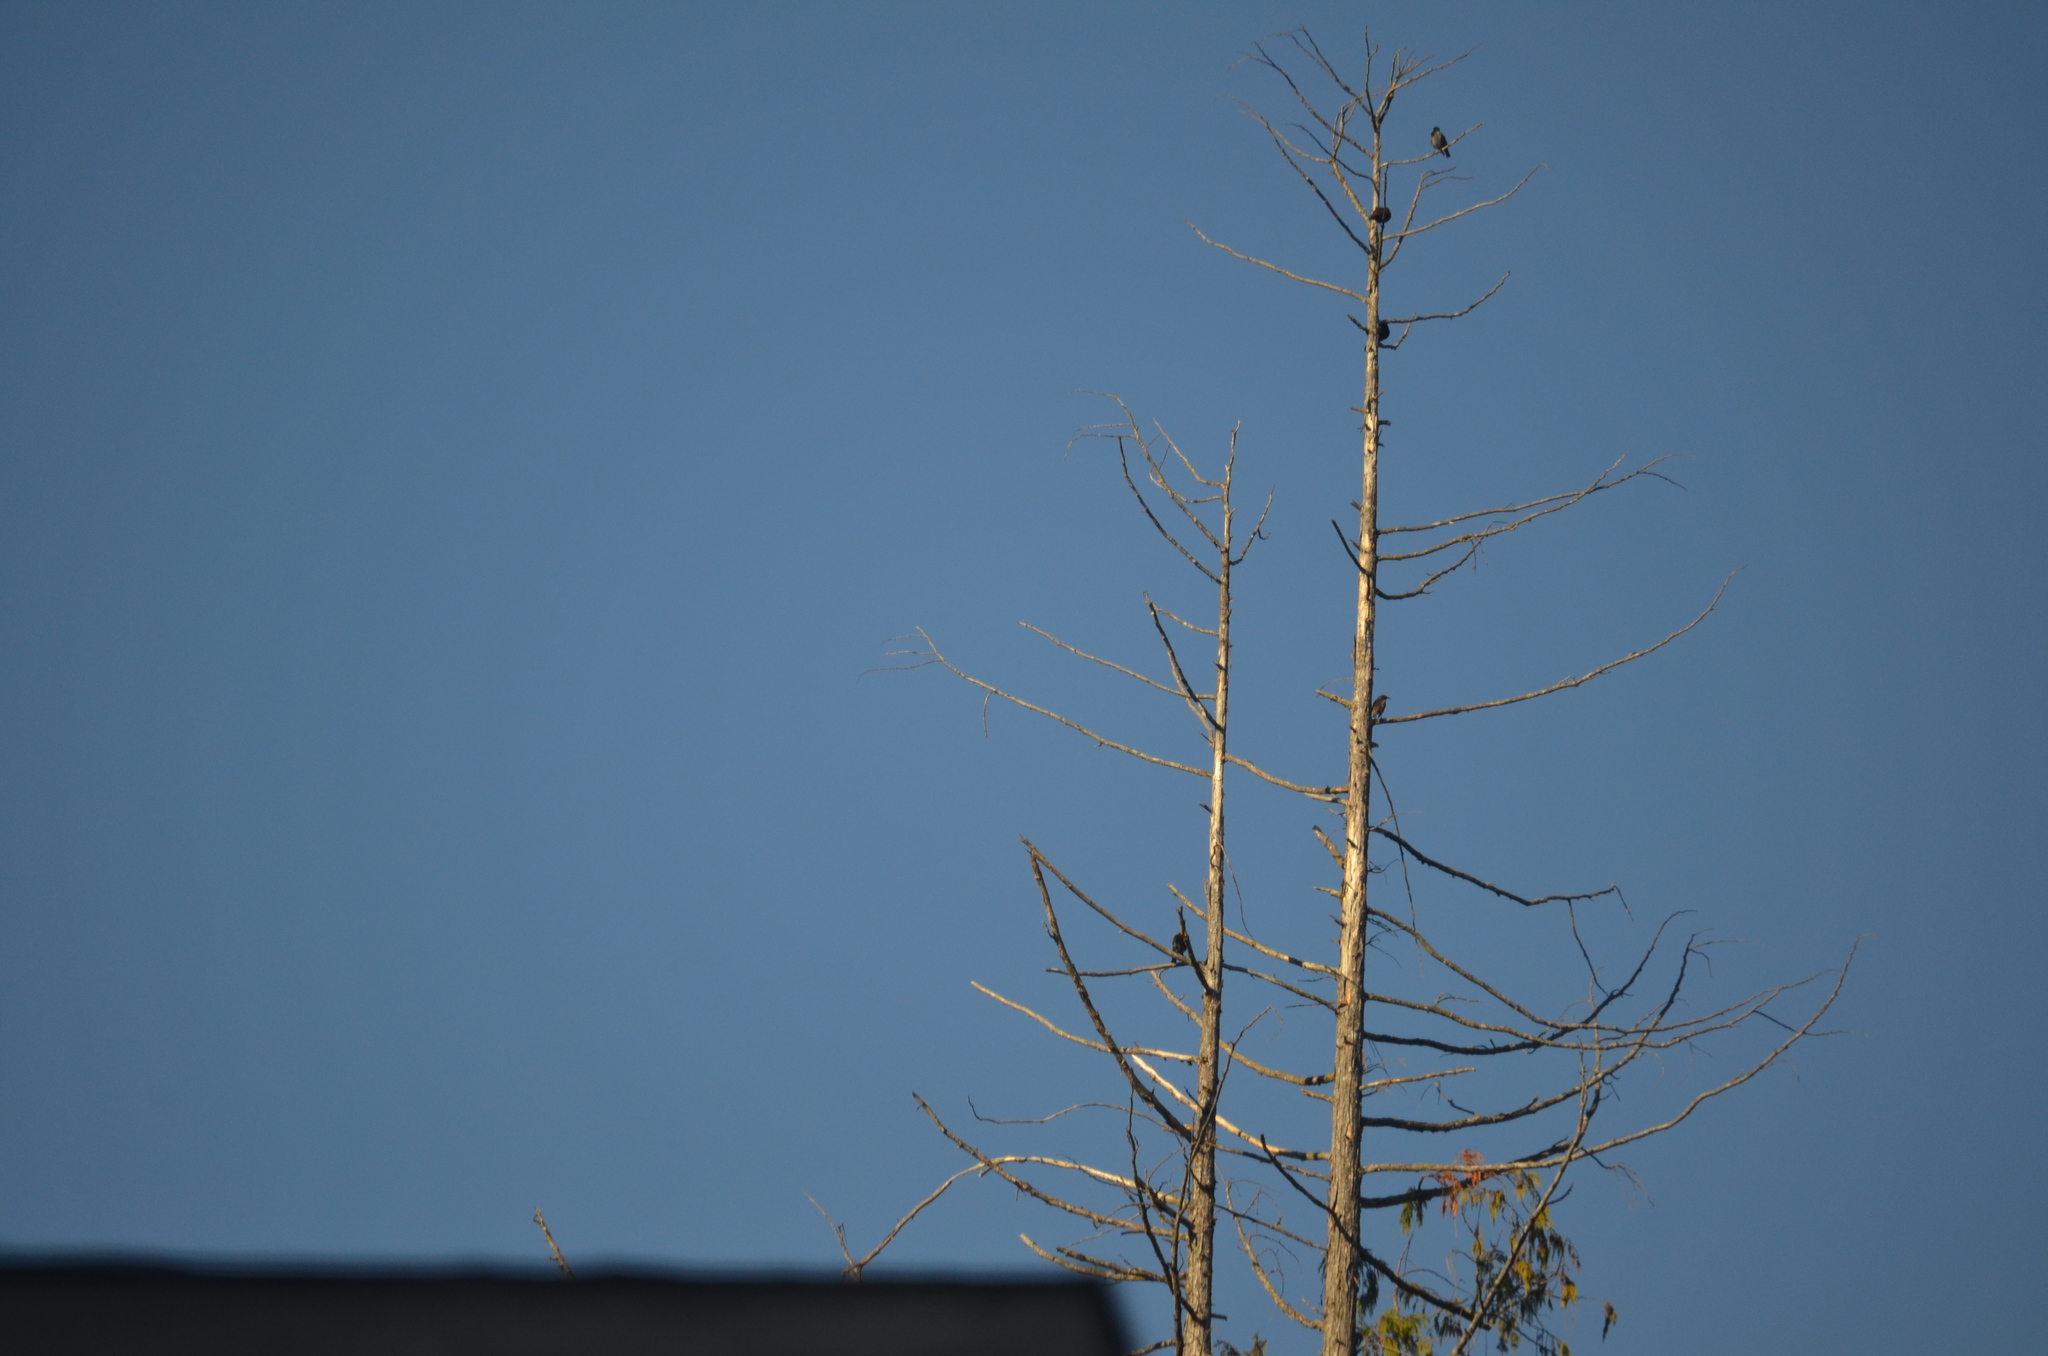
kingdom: Animalia
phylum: Chordata
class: Aves
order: Passeriformes
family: Sturnidae
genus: Sturnus
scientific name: Sturnus vulgaris
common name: Common starling
